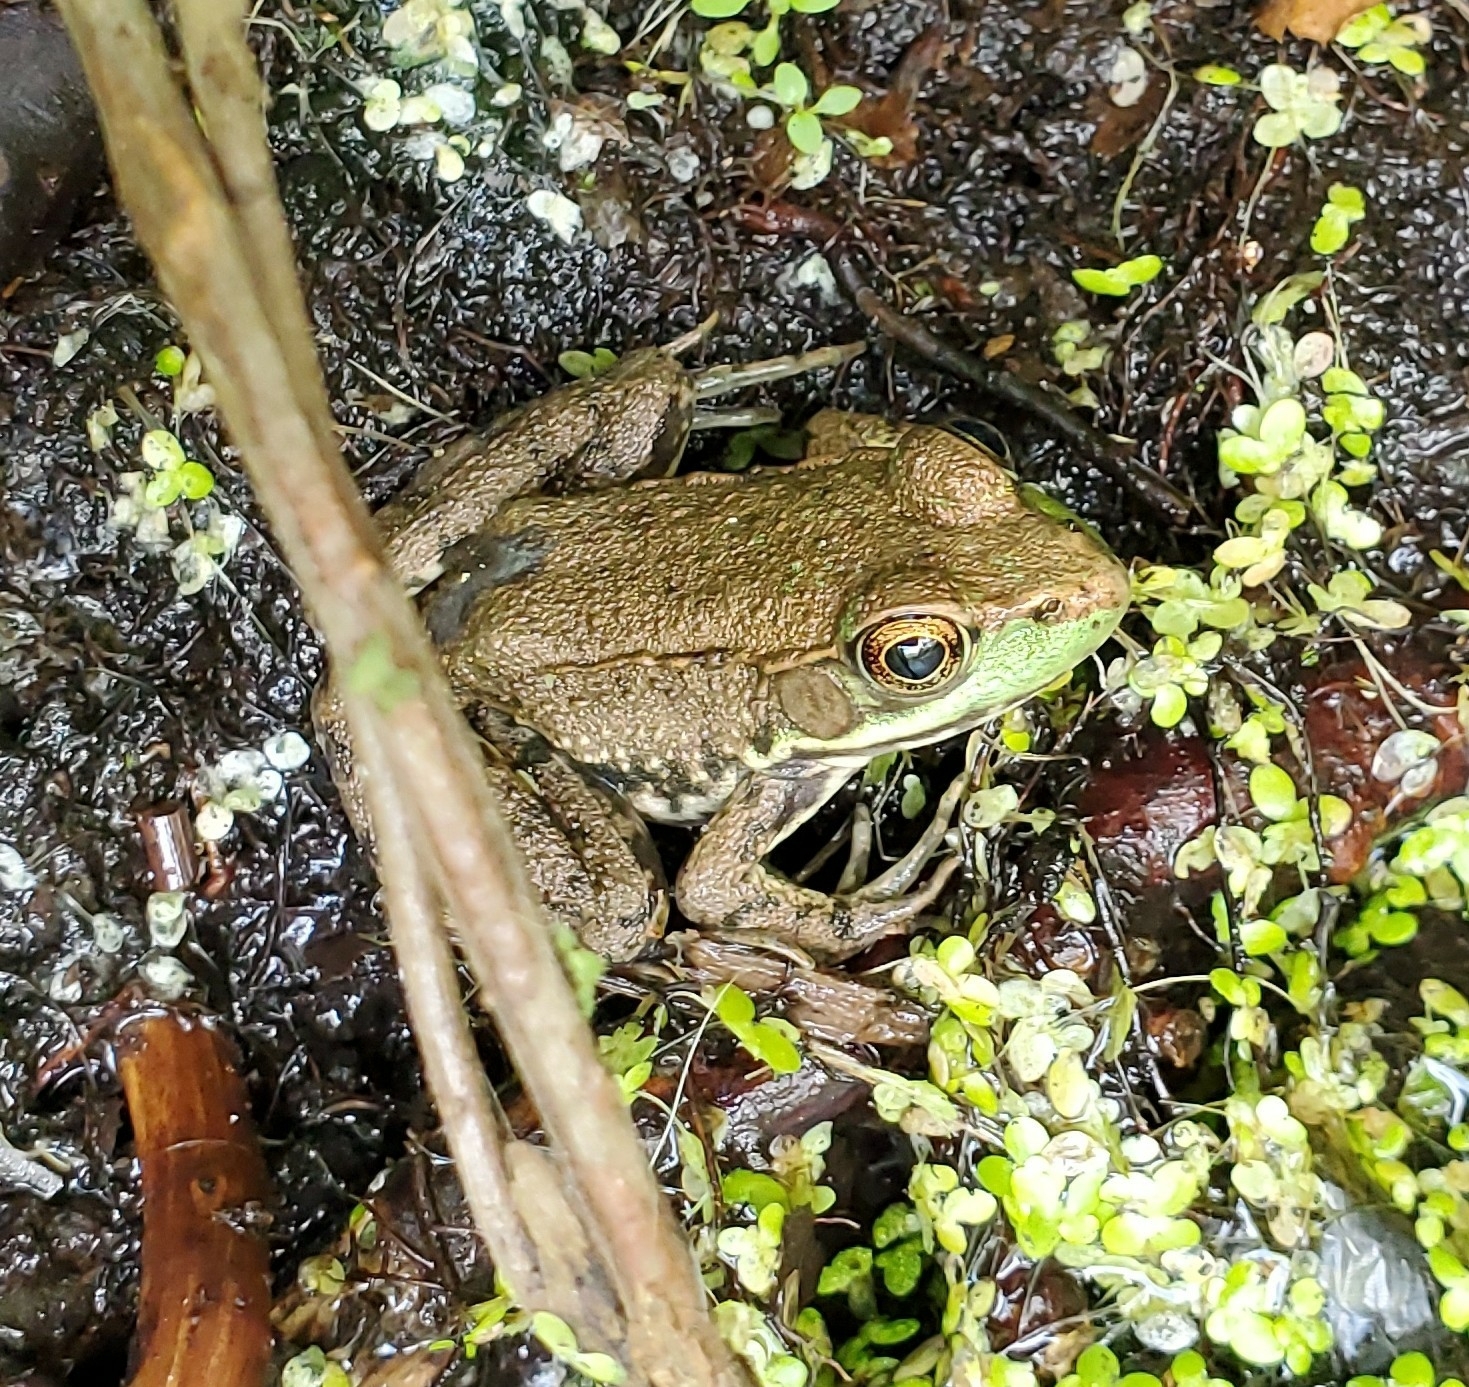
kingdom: Animalia
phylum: Chordata
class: Amphibia
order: Anura
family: Ranidae
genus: Lithobates
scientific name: Lithobates clamitans
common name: Green frog
